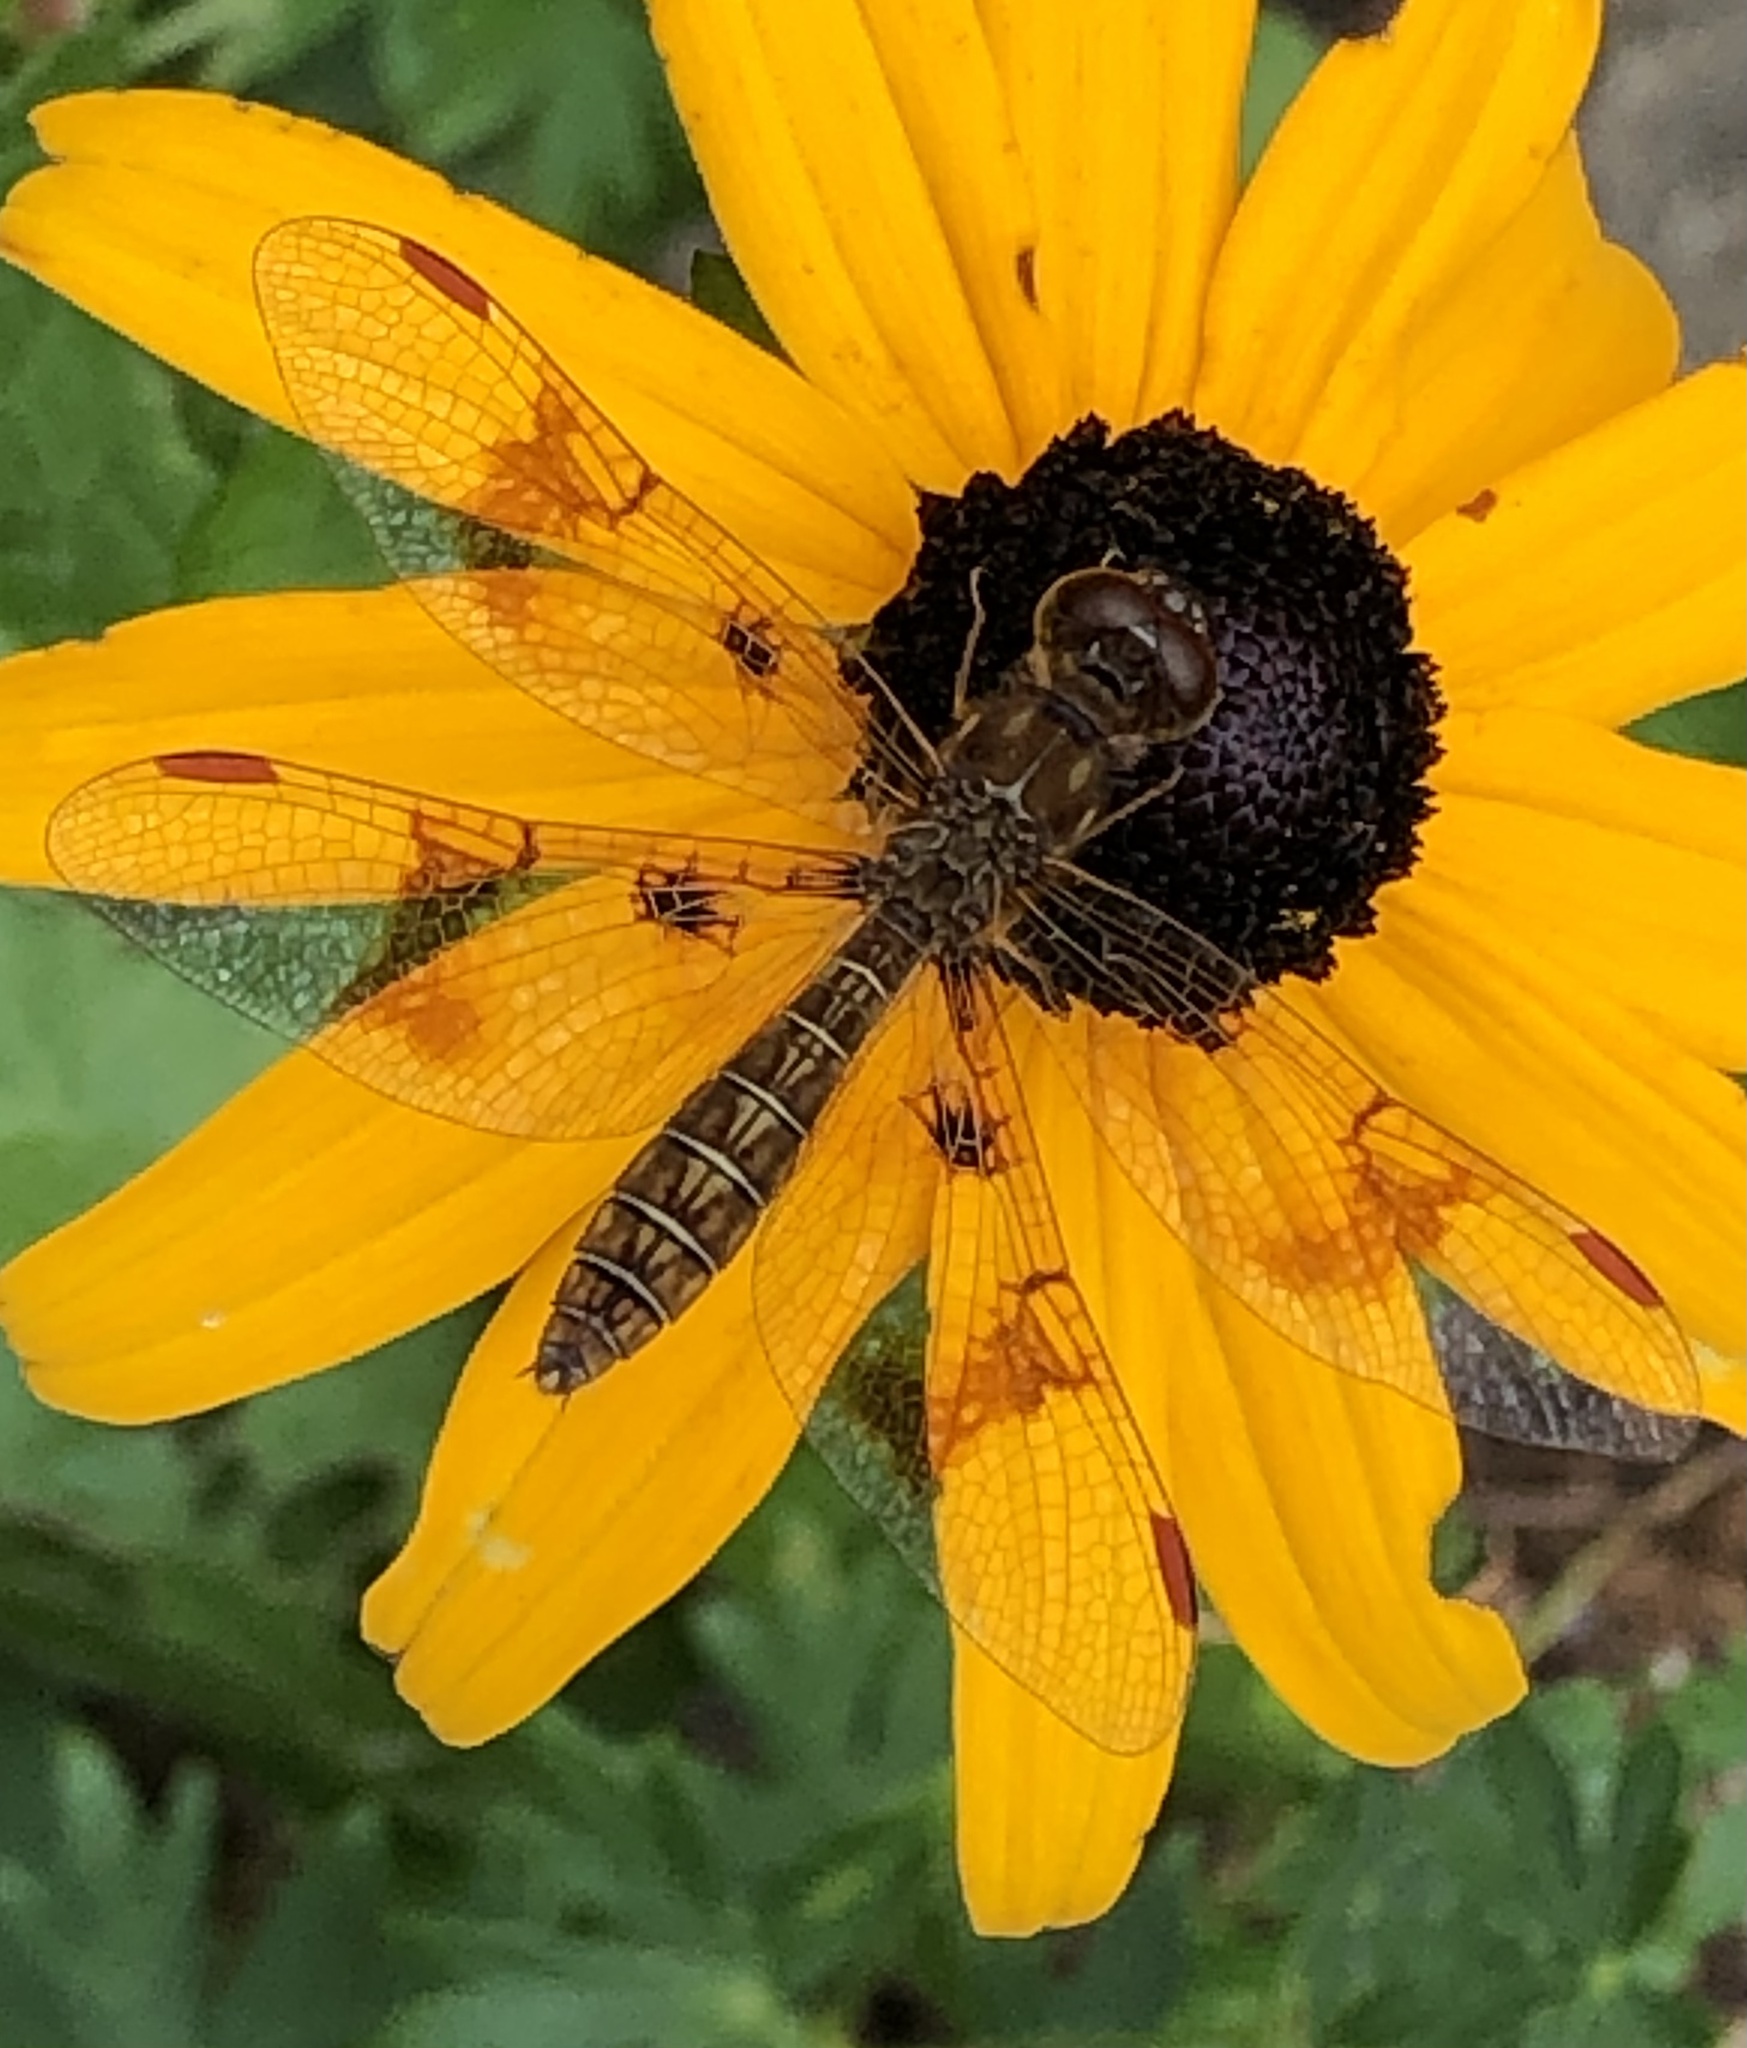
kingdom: Animalia
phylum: Arthropoda
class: Insecta
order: Odonata
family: Libellulidae
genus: Perithemis
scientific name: Perithemis tenera
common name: Eastern amberwing
